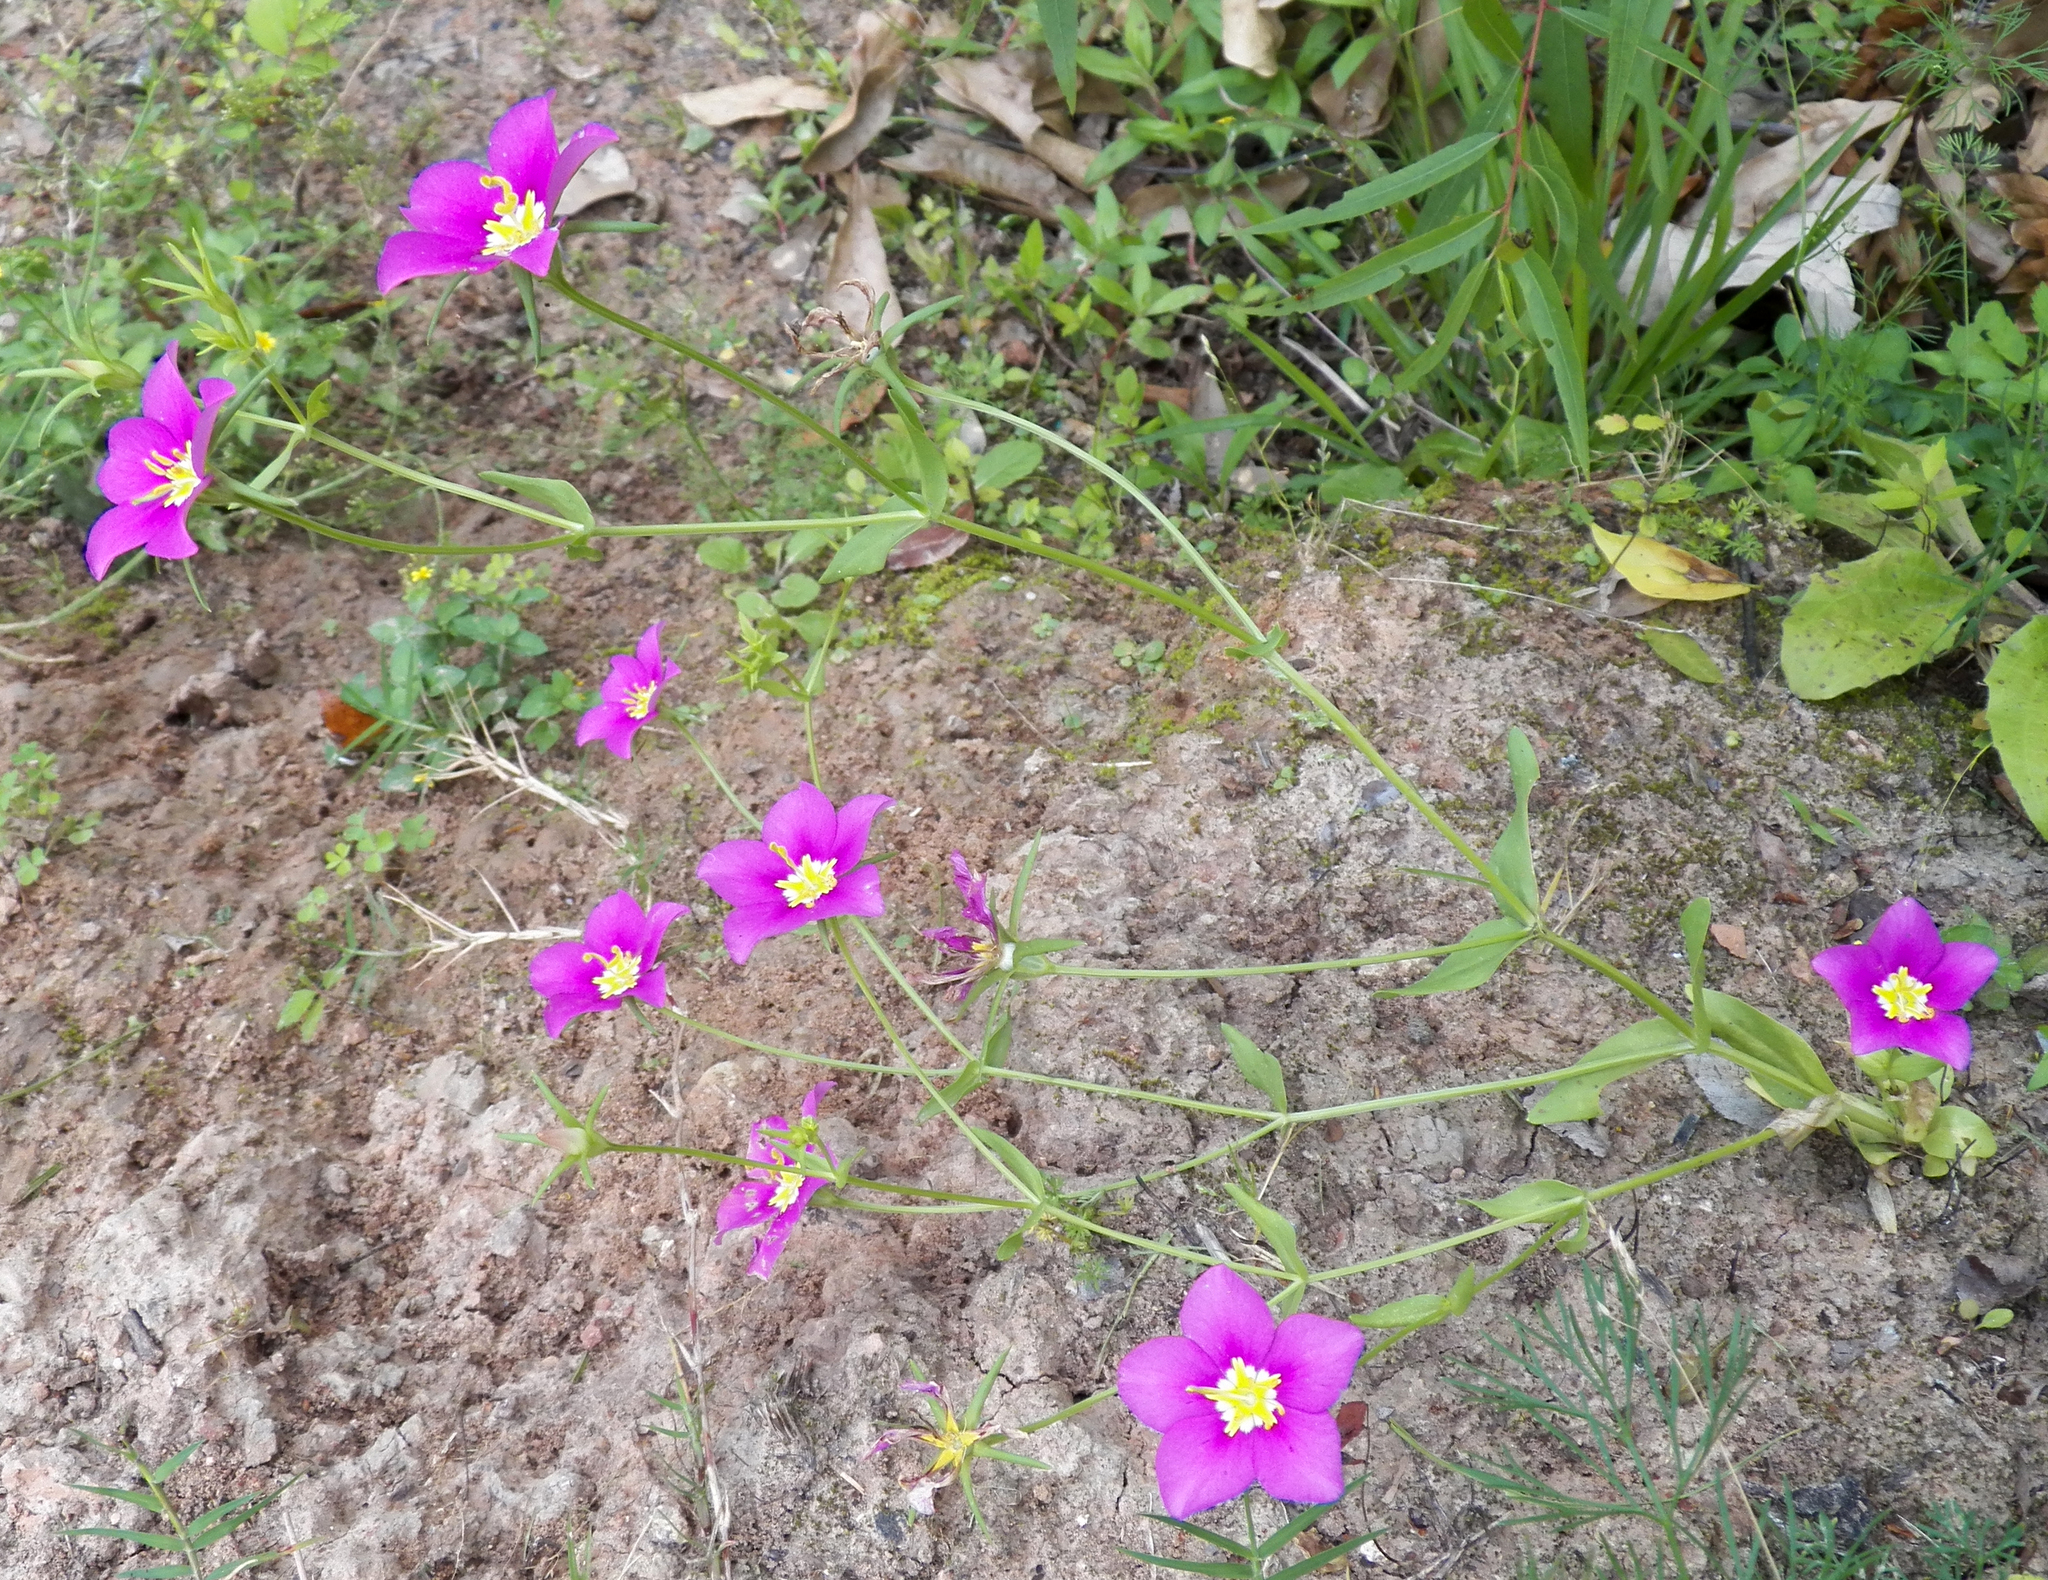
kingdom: Plantae
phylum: Tracheophyta
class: Magnoliopsida
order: Gentianales
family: Gentianaceae
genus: Sabatia
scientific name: Sabatia campestris
